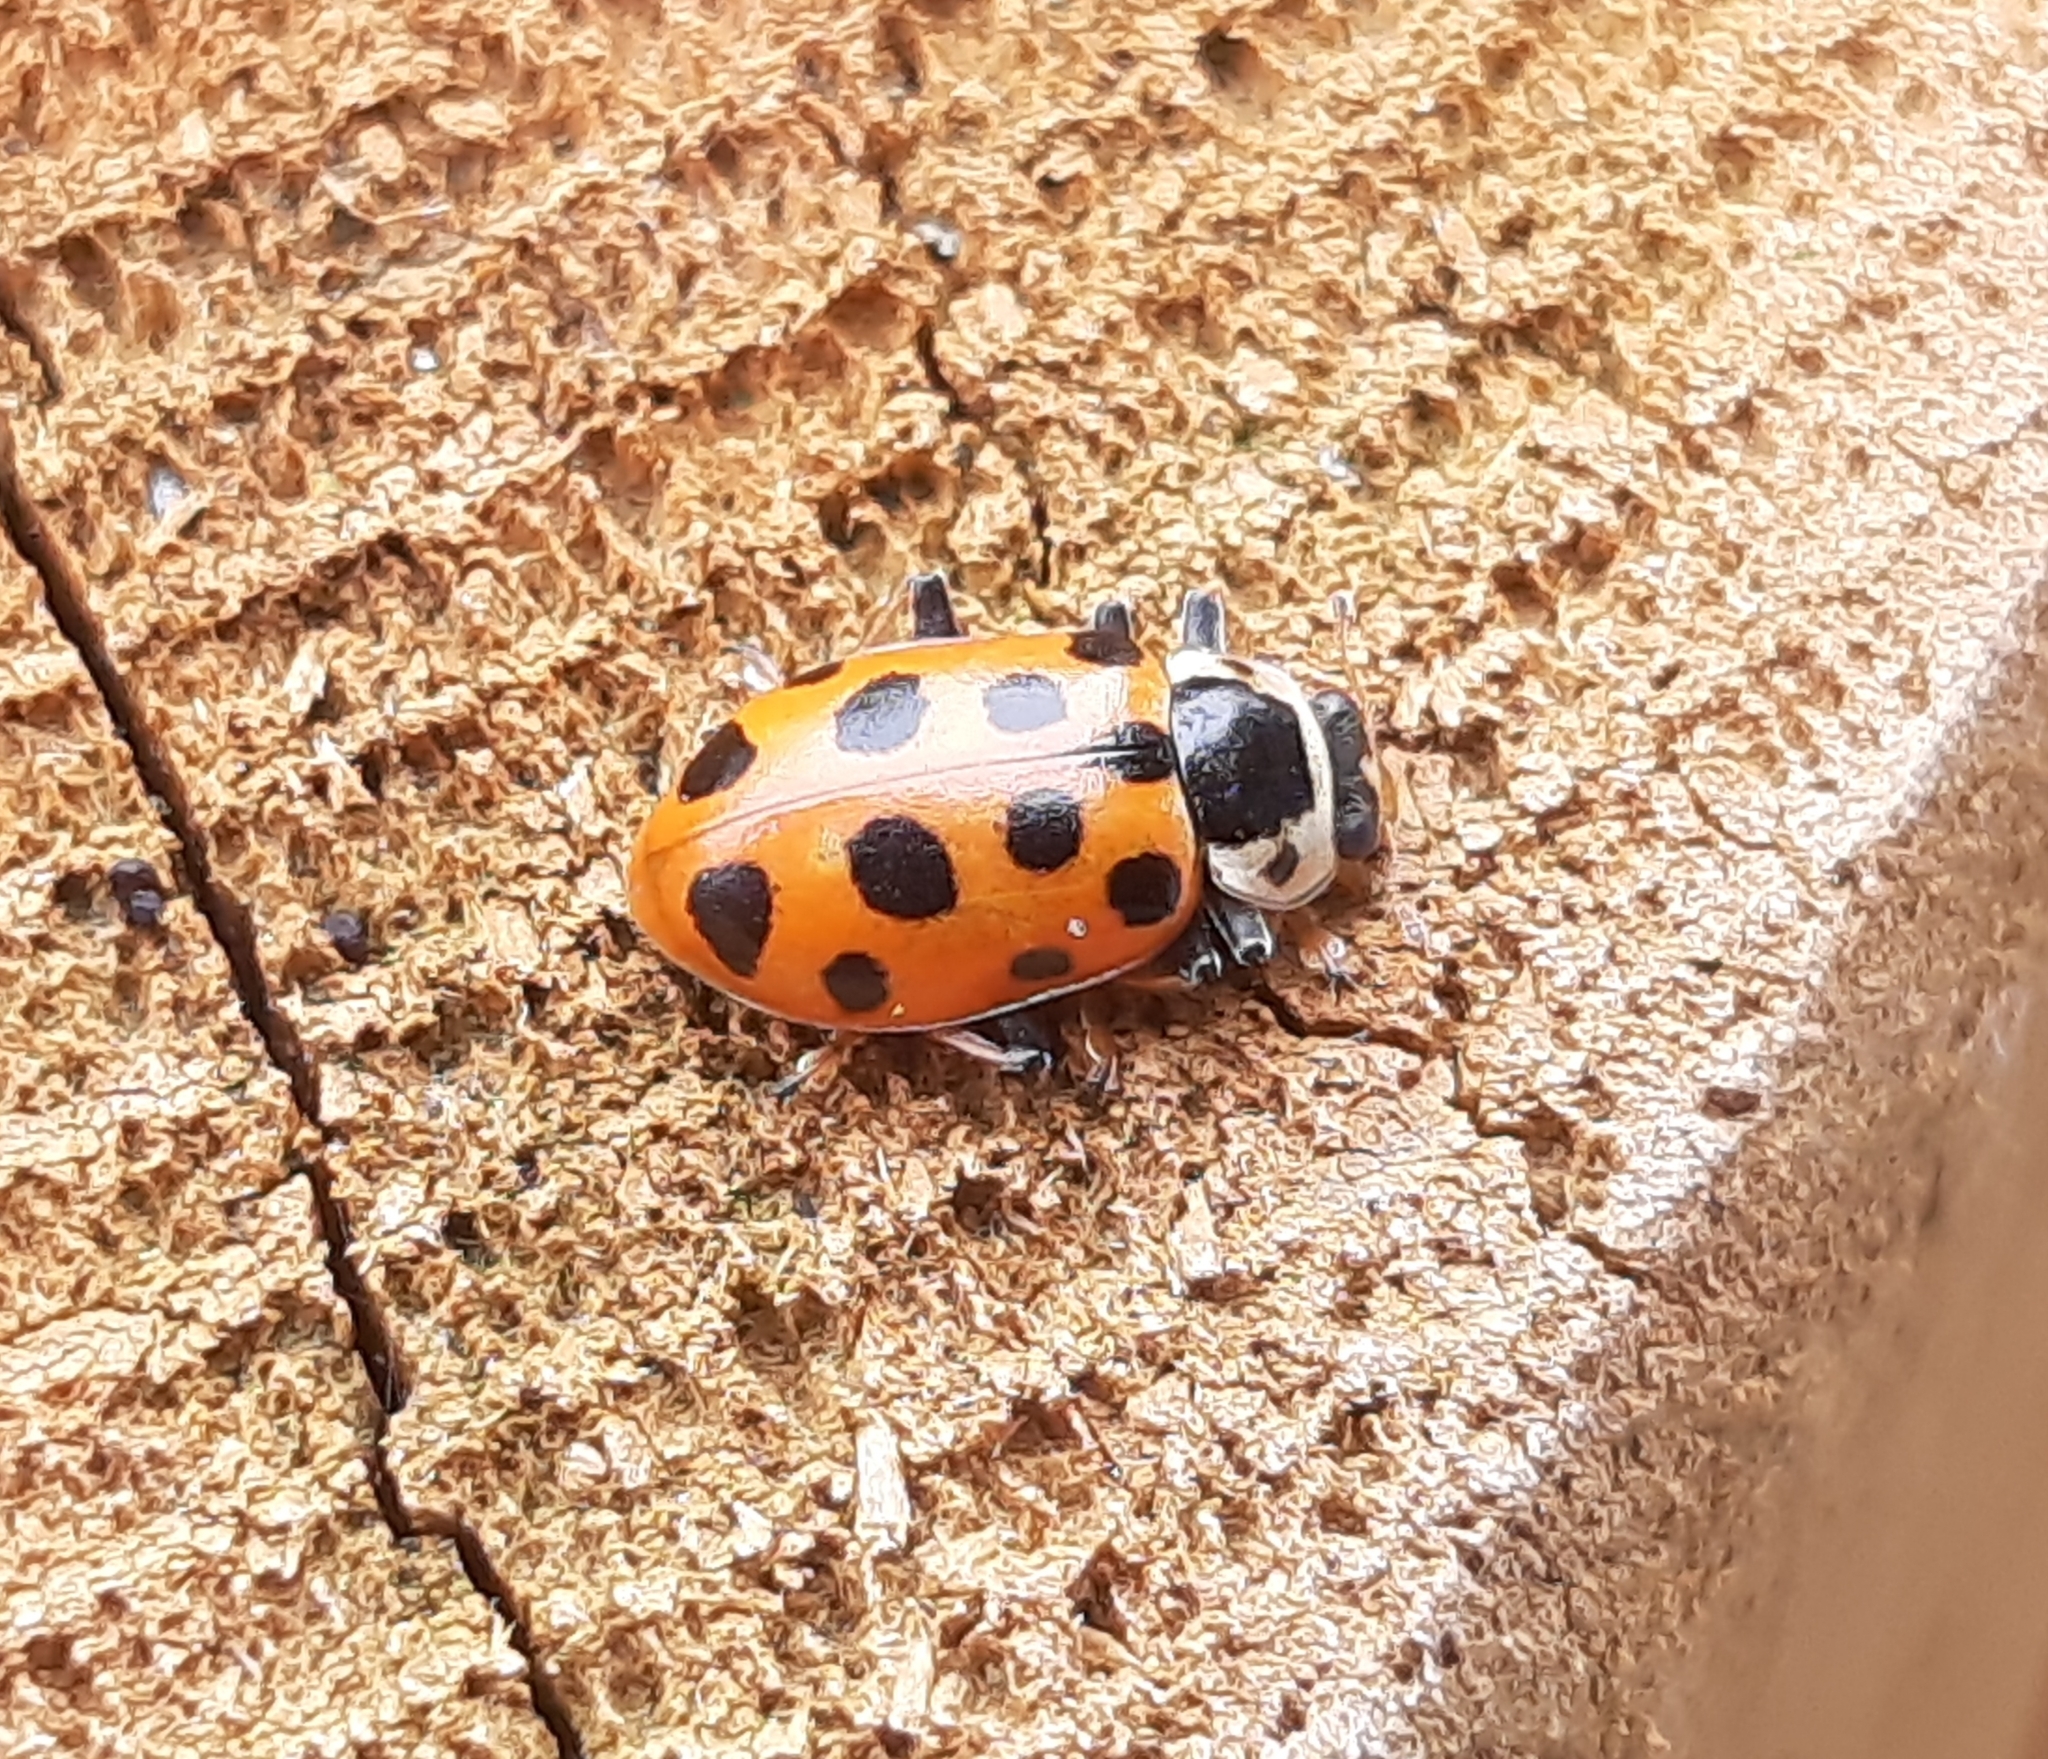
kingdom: Animalia
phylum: Arthropoda
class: Insecta
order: Coleoptera
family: Coccinellidae
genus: Hippodamia
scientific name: Hippodamia tredecimpunctata
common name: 13-spot ladybird
